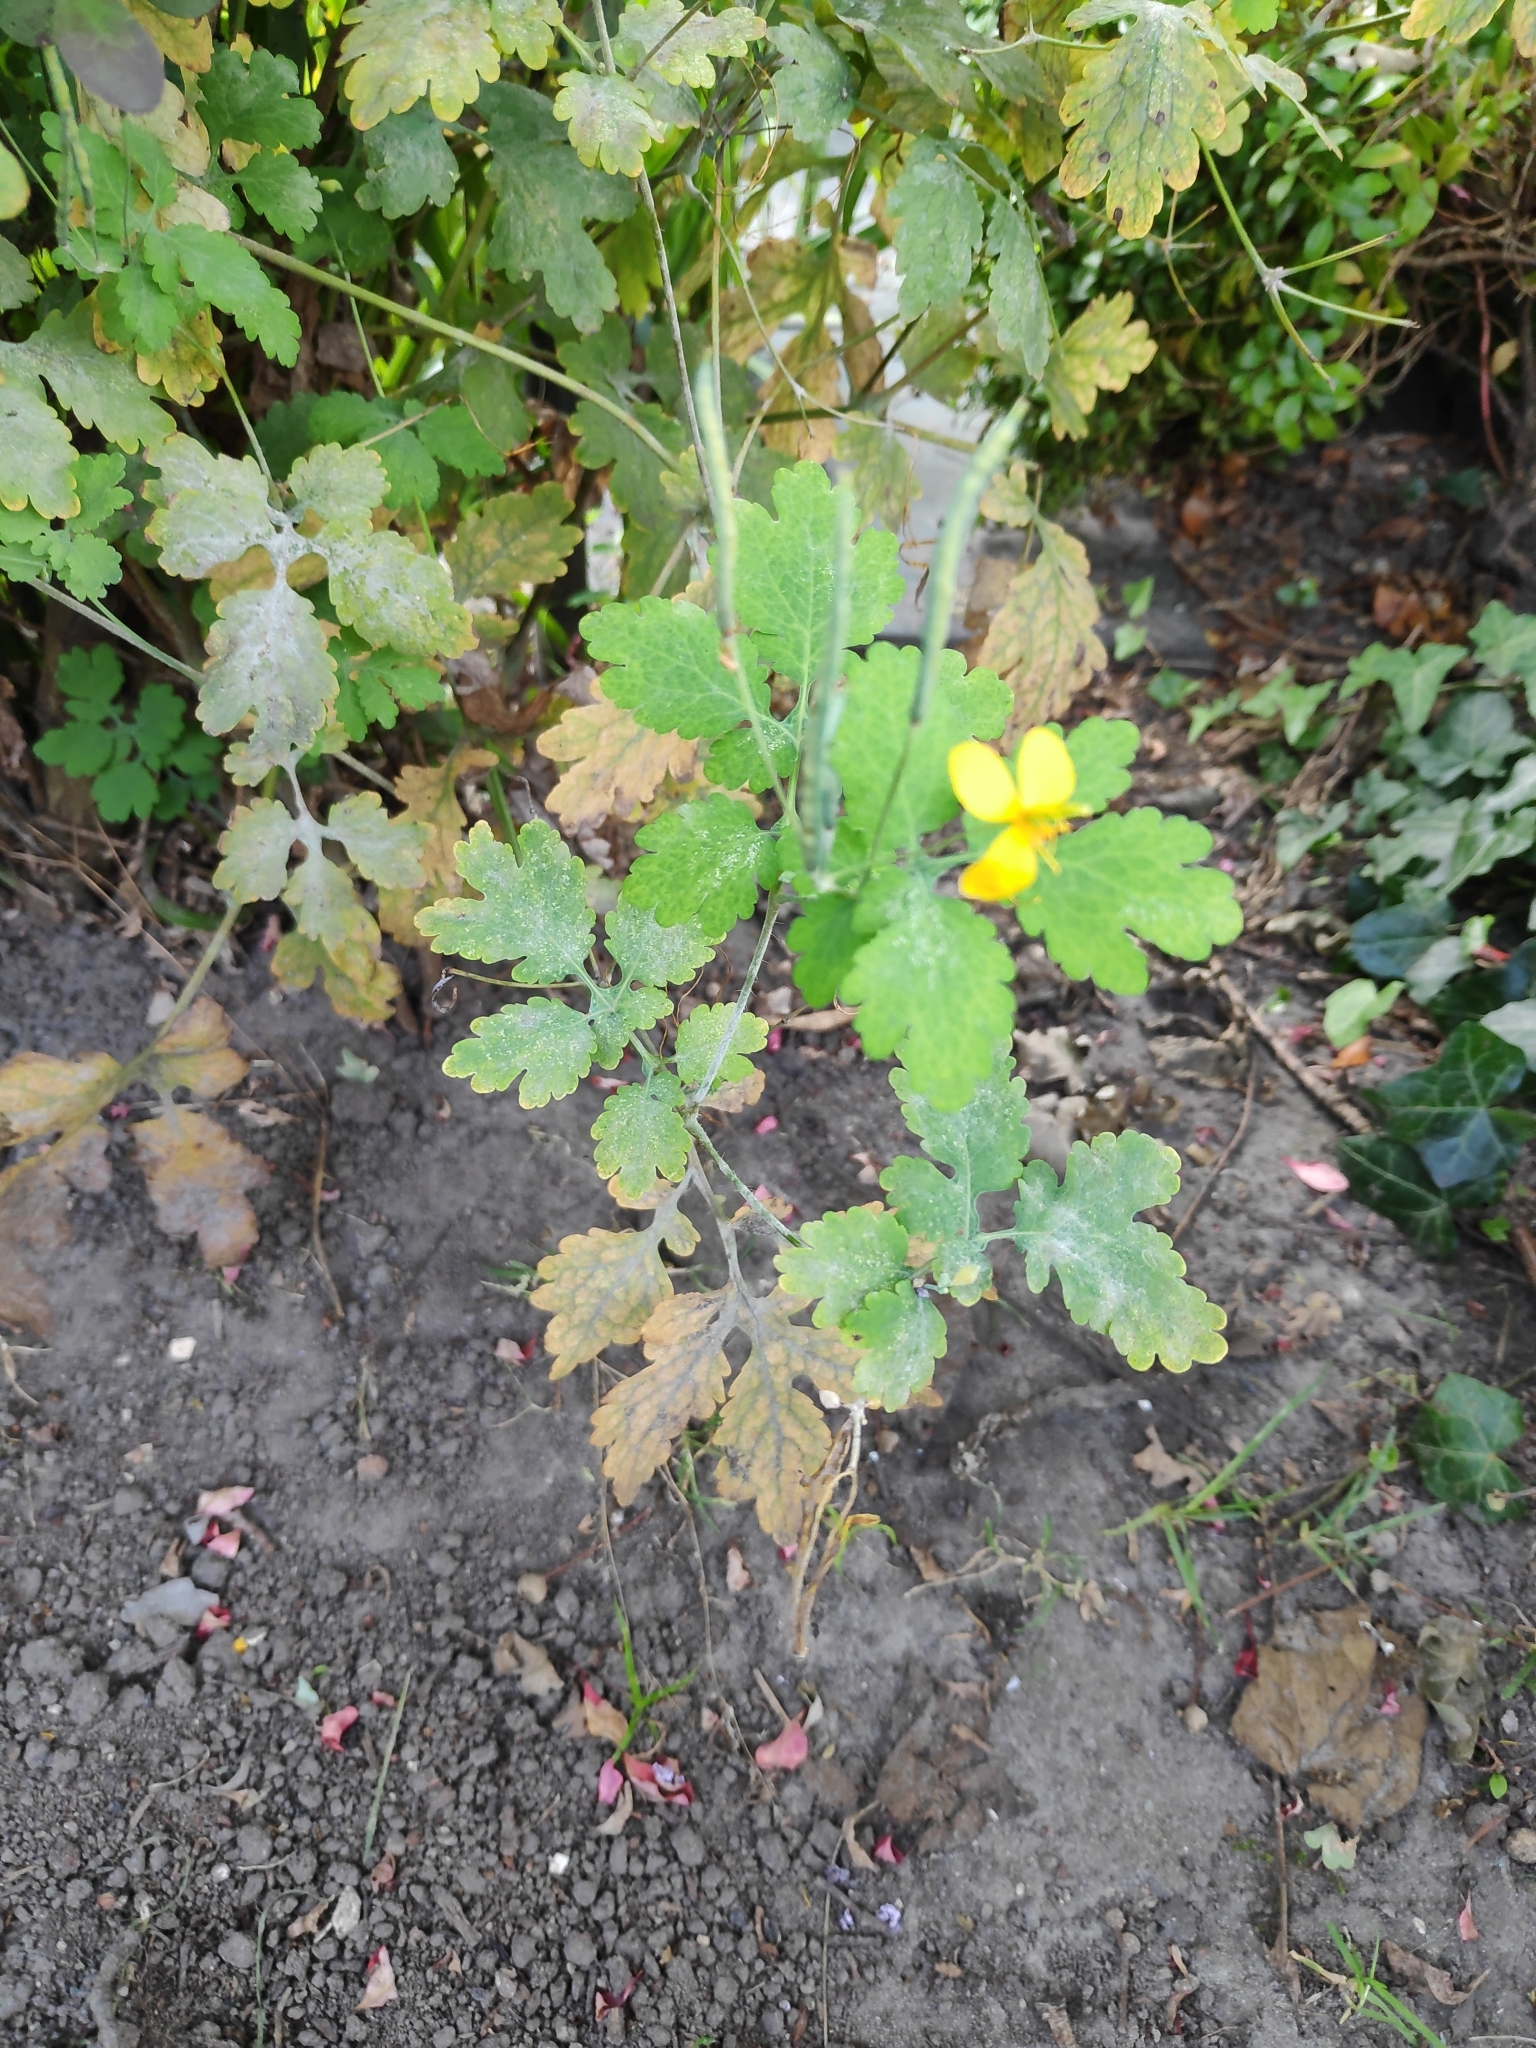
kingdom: Plantae
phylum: Tracheophyta
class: Magnoliopsida
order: Ranunculales
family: Papaveraceae
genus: Chelidonium
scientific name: Chelidonium majus
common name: Greater celandine
